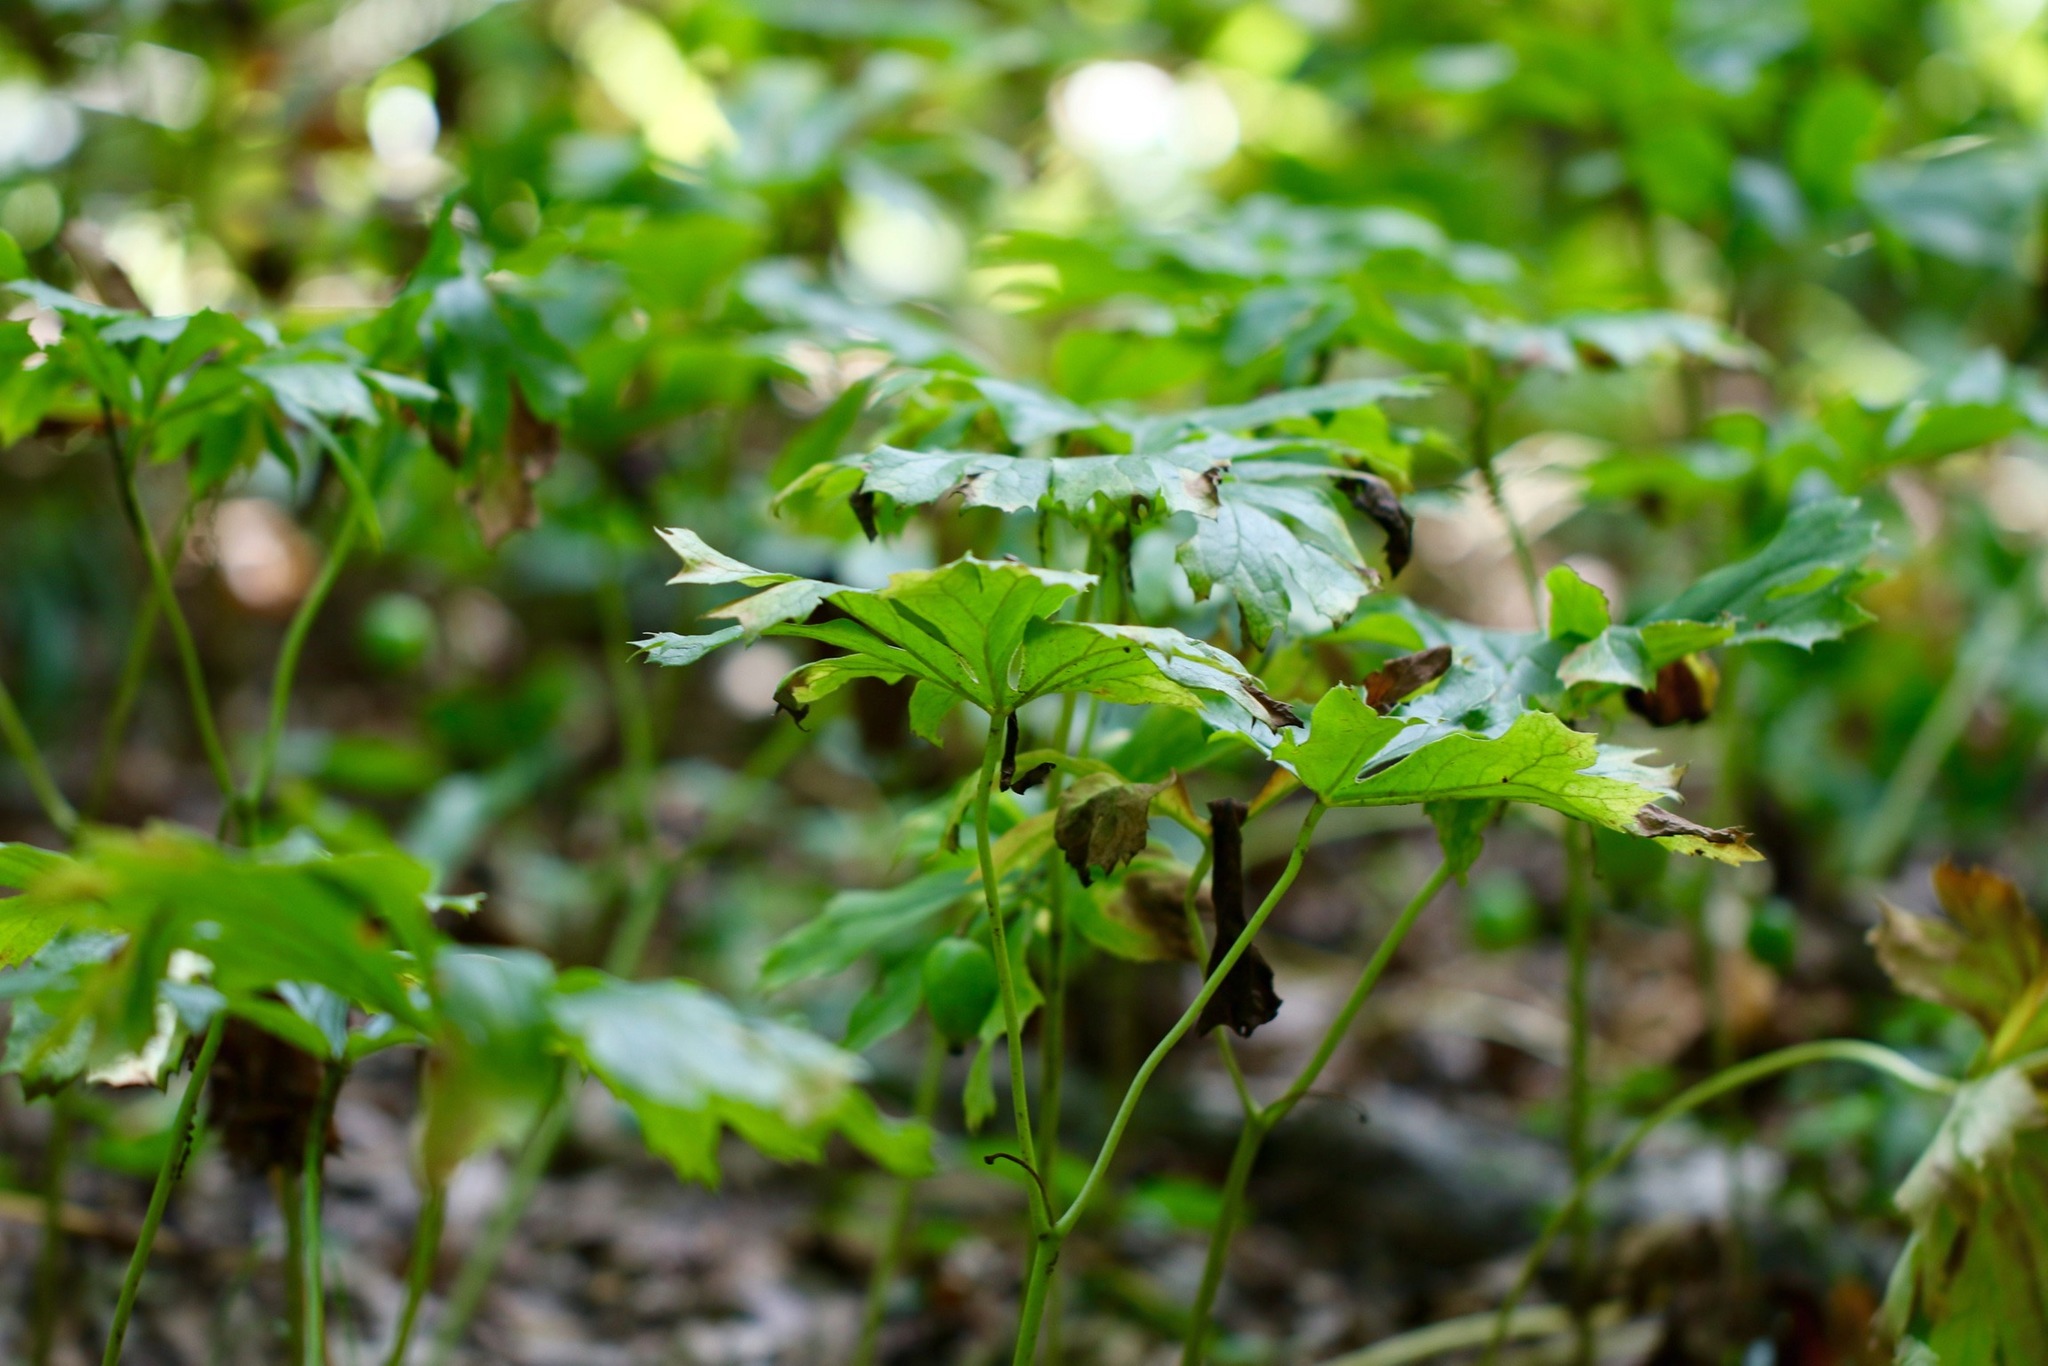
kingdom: Plantae
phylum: Tracheophyta
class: Magnoliopsida
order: Ranunculales
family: Berberidaceae
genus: Podophyllum
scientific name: Podophyllum peltatum
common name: Wild mandrake
